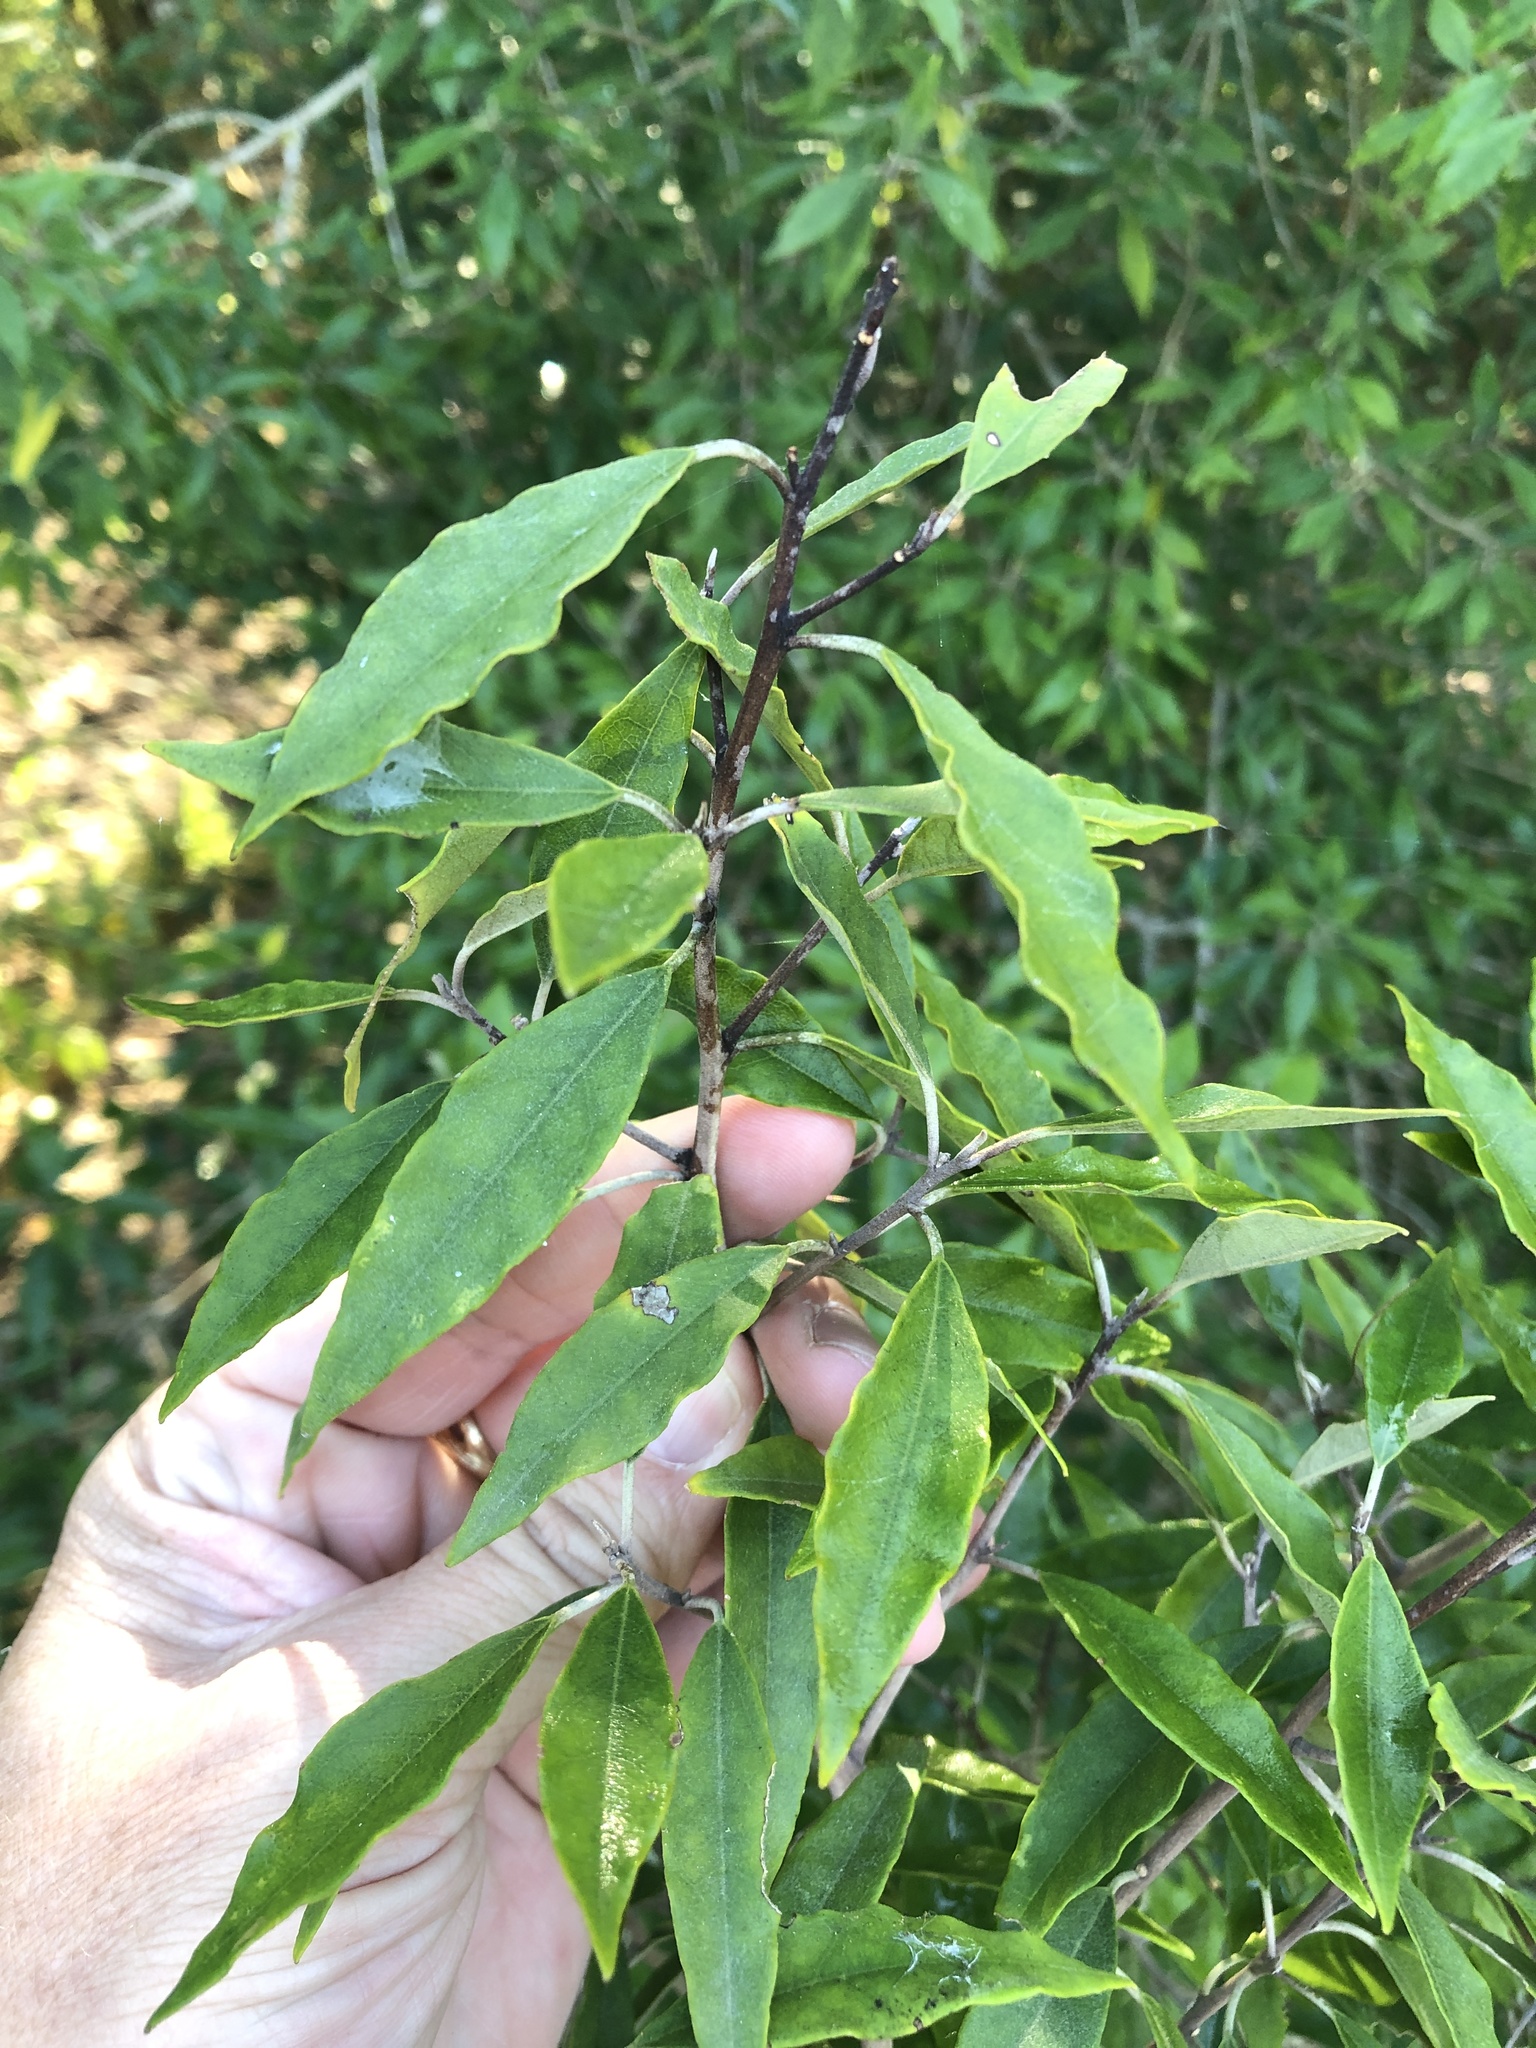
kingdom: Plantae
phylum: Tracheophyta
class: Magnoliopsida
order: Brassicales
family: Capparaceae
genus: Quadrella
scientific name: Quadrella incana
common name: Hoary caper
